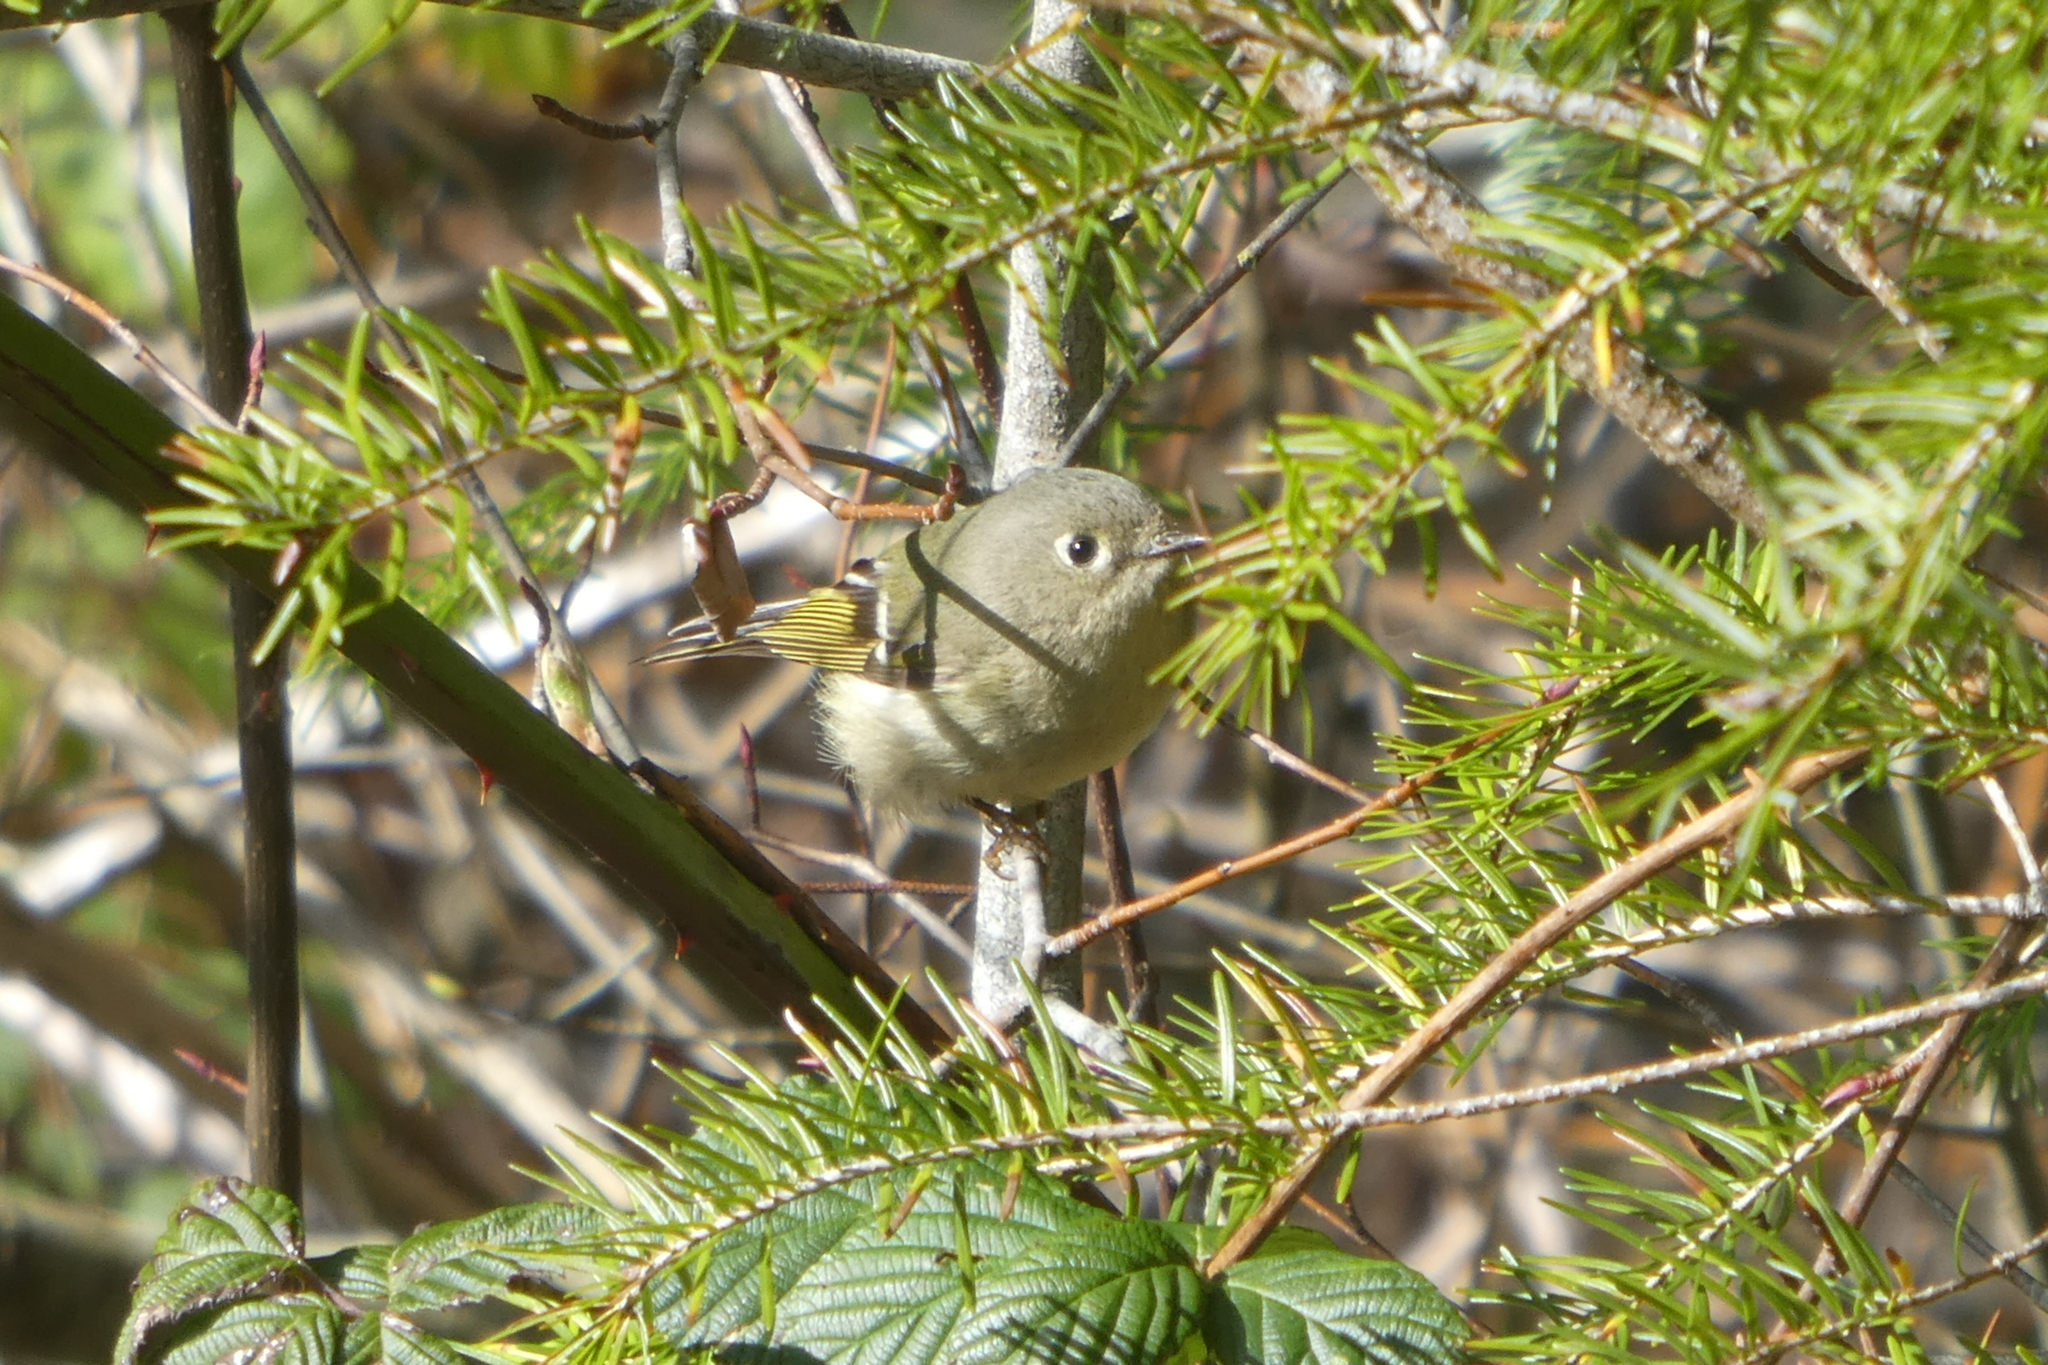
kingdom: Animalia
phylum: Chordata
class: Aves
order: Passeriformes
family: Regulidae
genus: Regulus
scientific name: Regulus calendula
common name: Ruby-crowned kinglet
